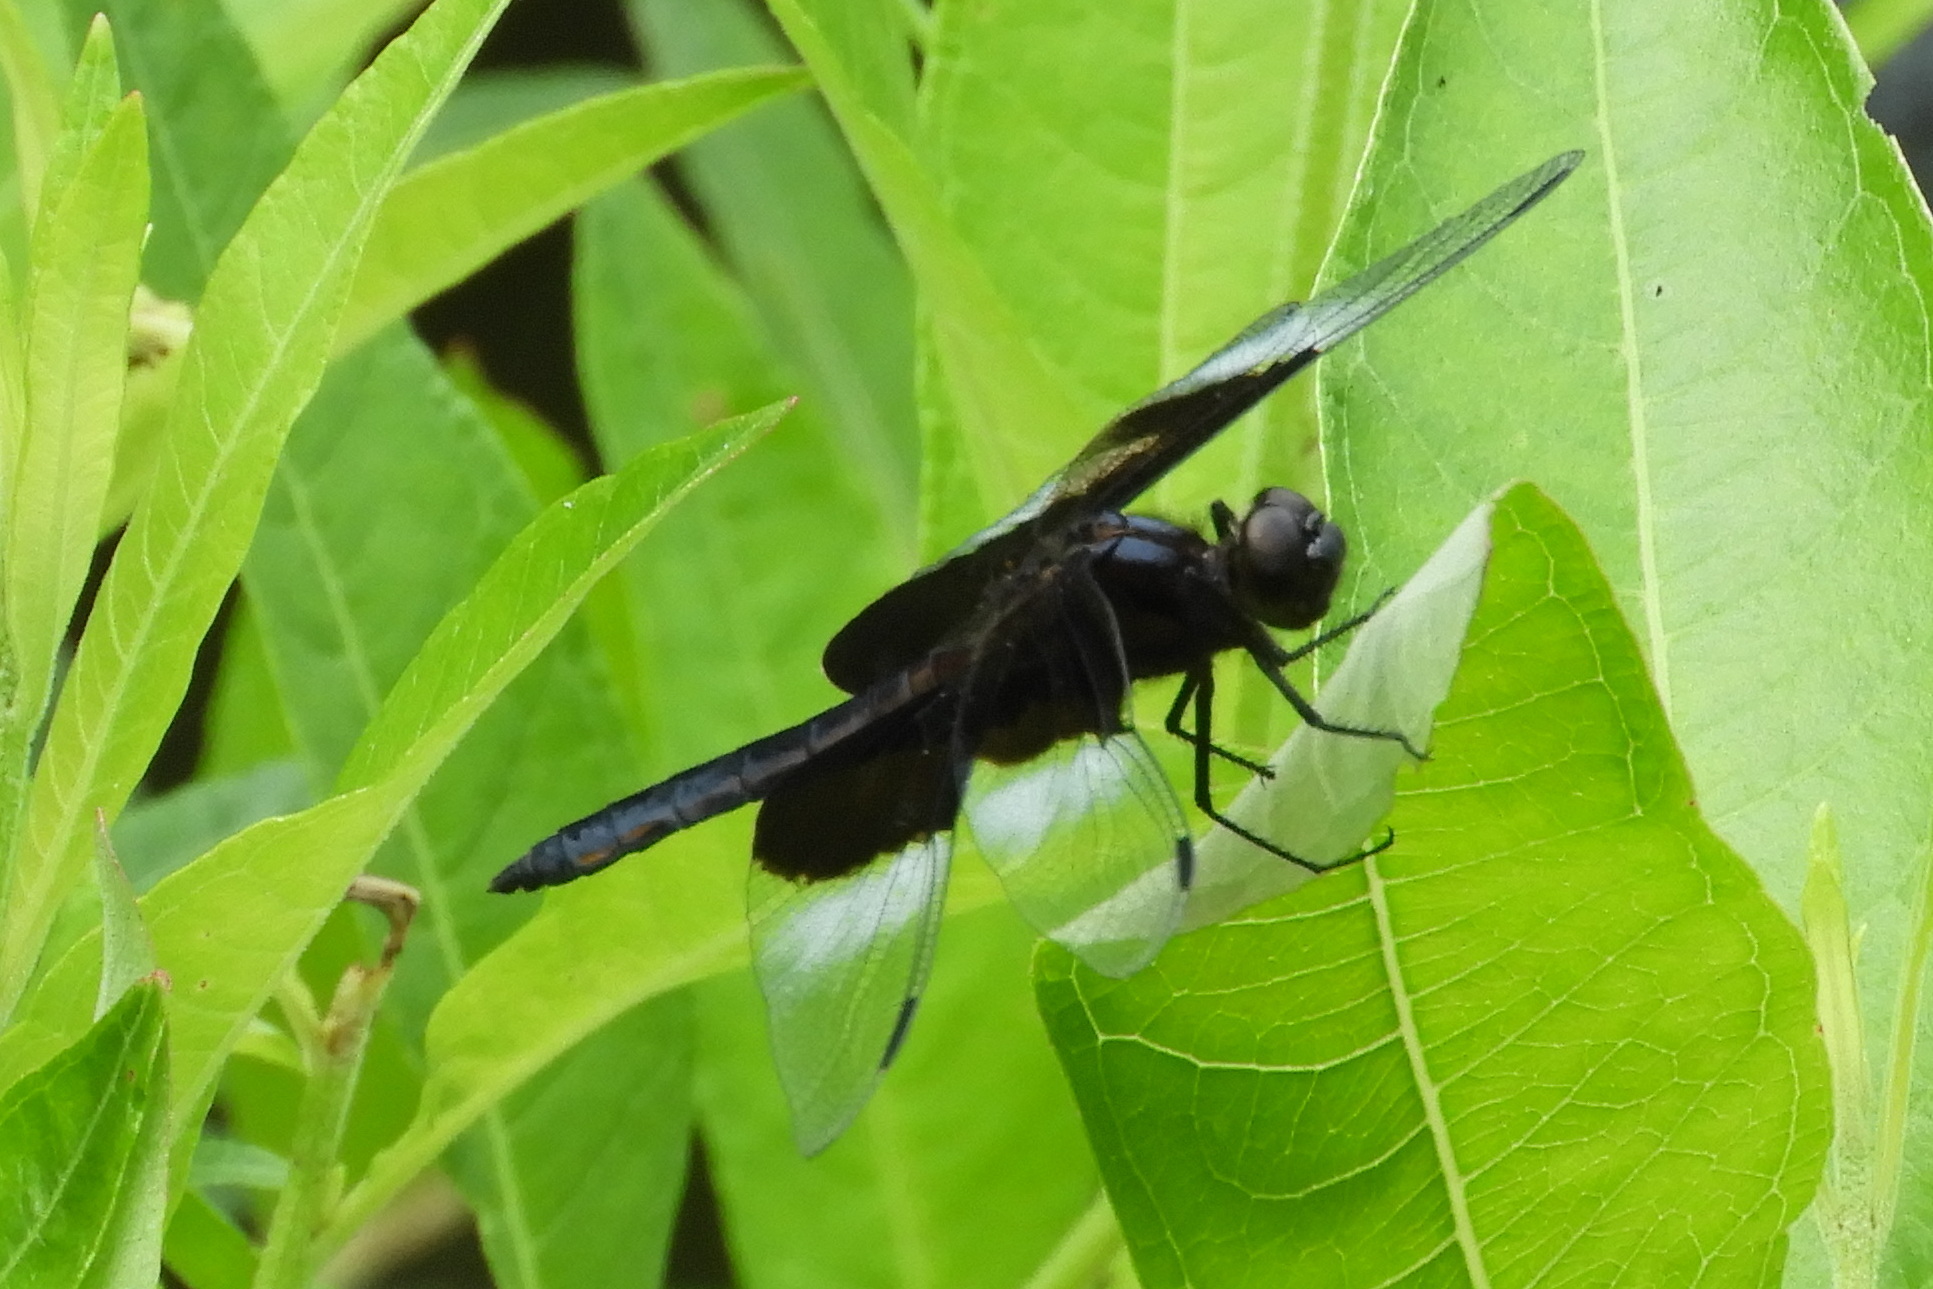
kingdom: Animalia
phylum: Arthropoda
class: Insecta
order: Odonata
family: Libellulidae
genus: Libellula
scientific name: Libellula luctuosa
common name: Widow skimmer
